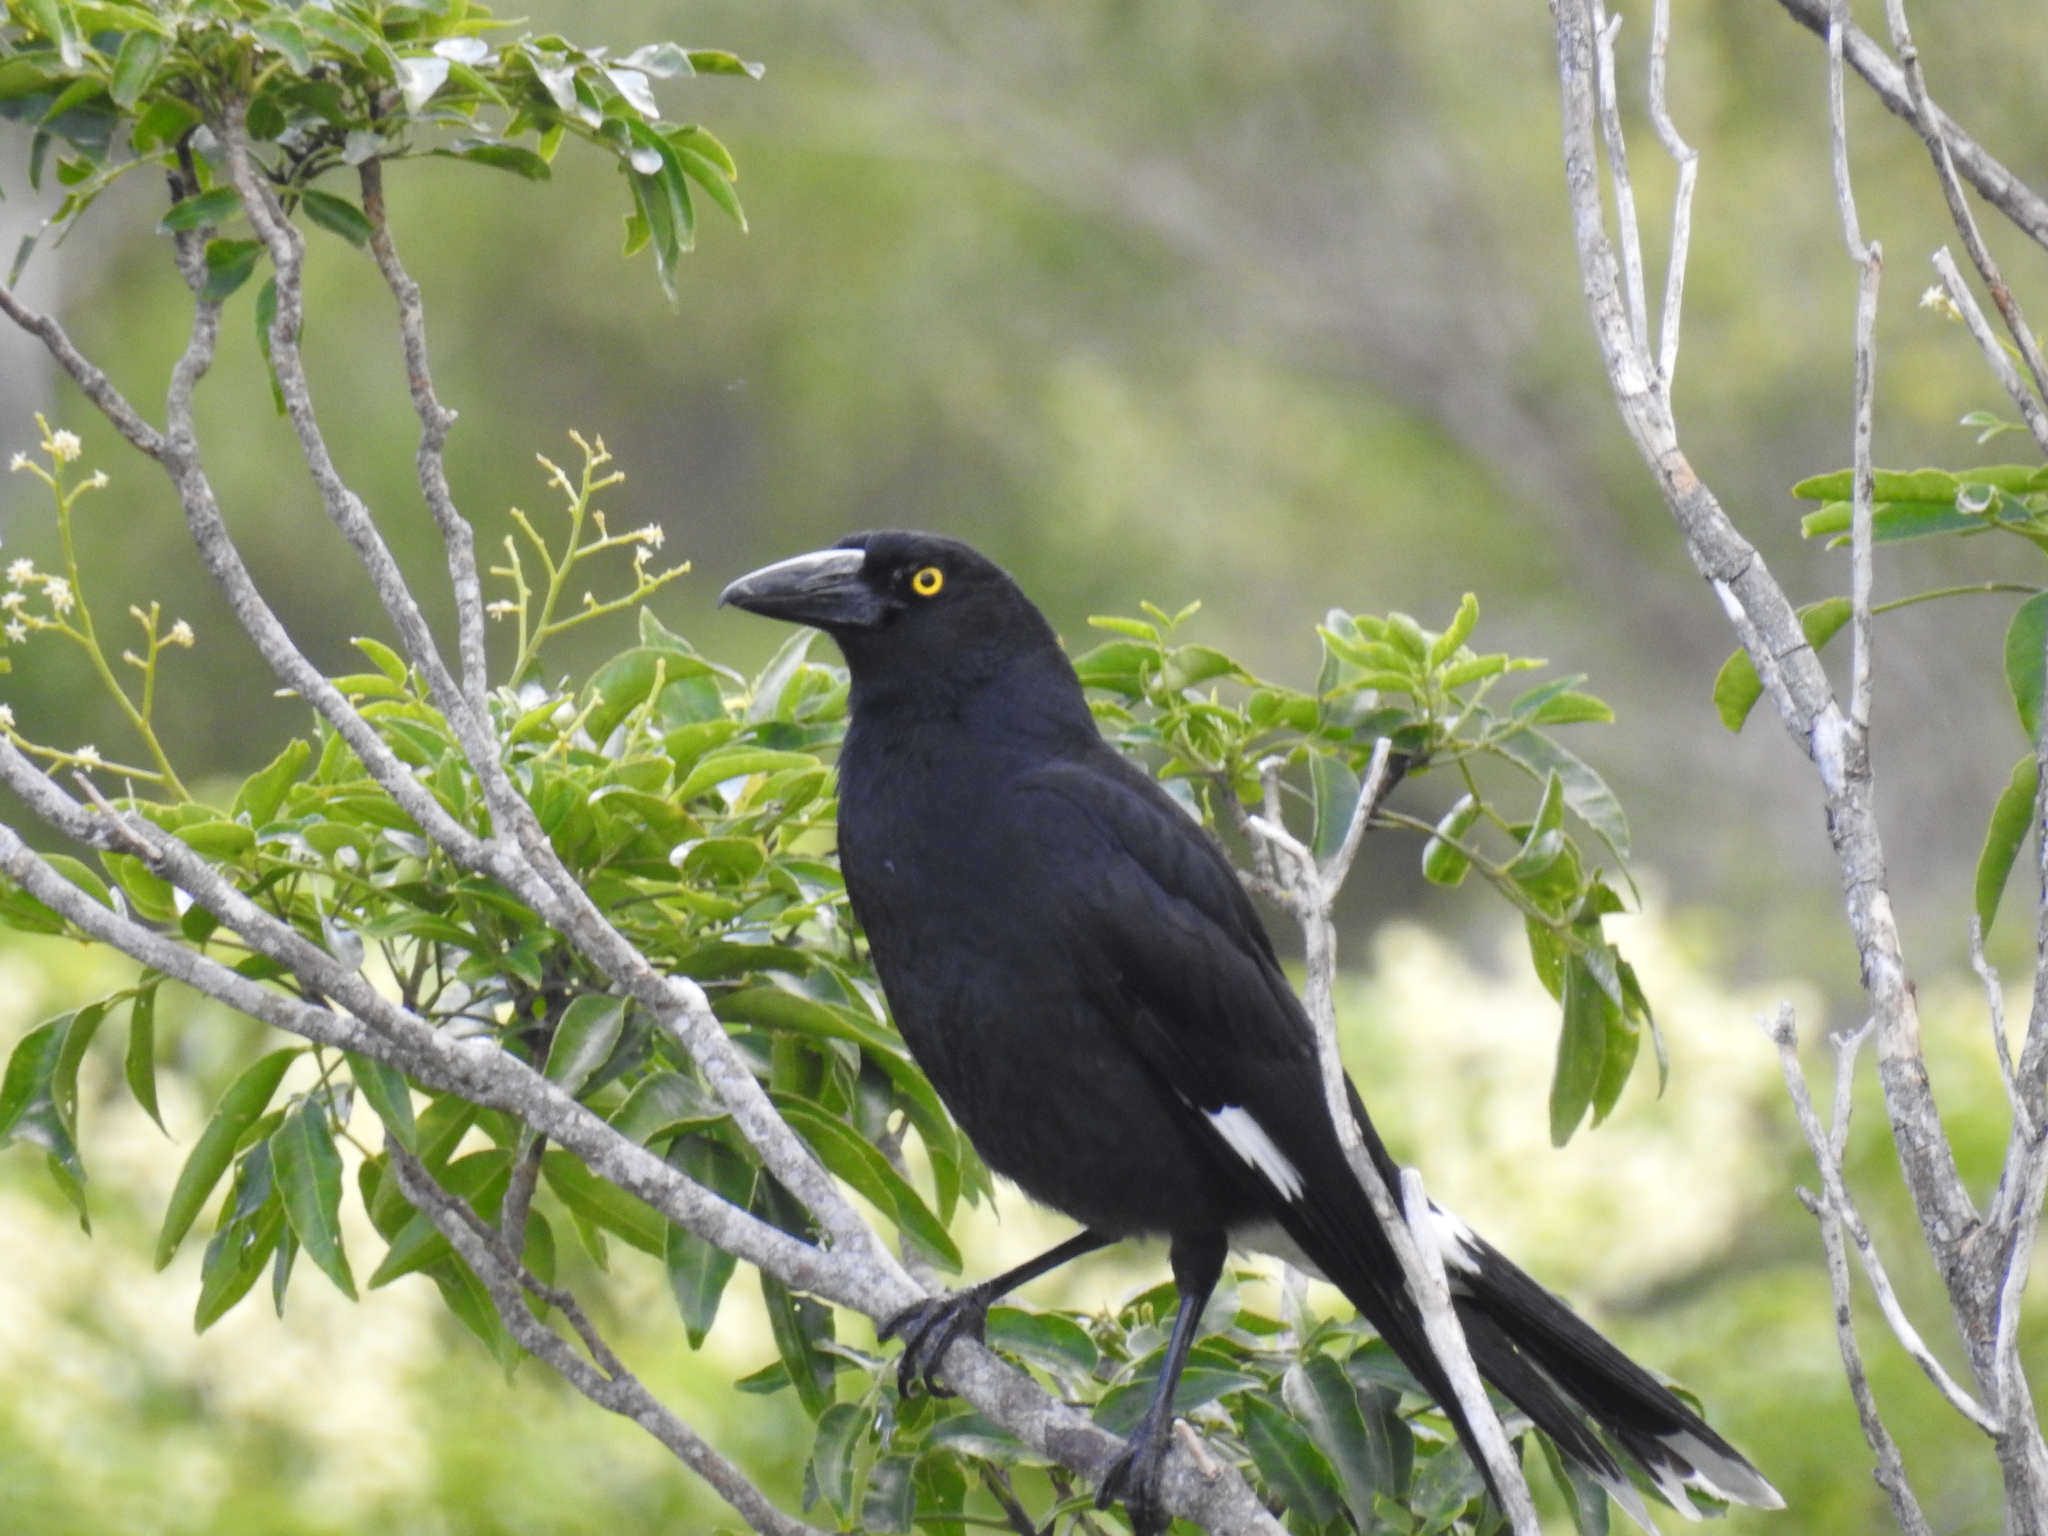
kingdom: Animalia
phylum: Chordata
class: Aves
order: Passeriformes
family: Cracticidae
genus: Strepera
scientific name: Strepera graculina
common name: Pied currawong
